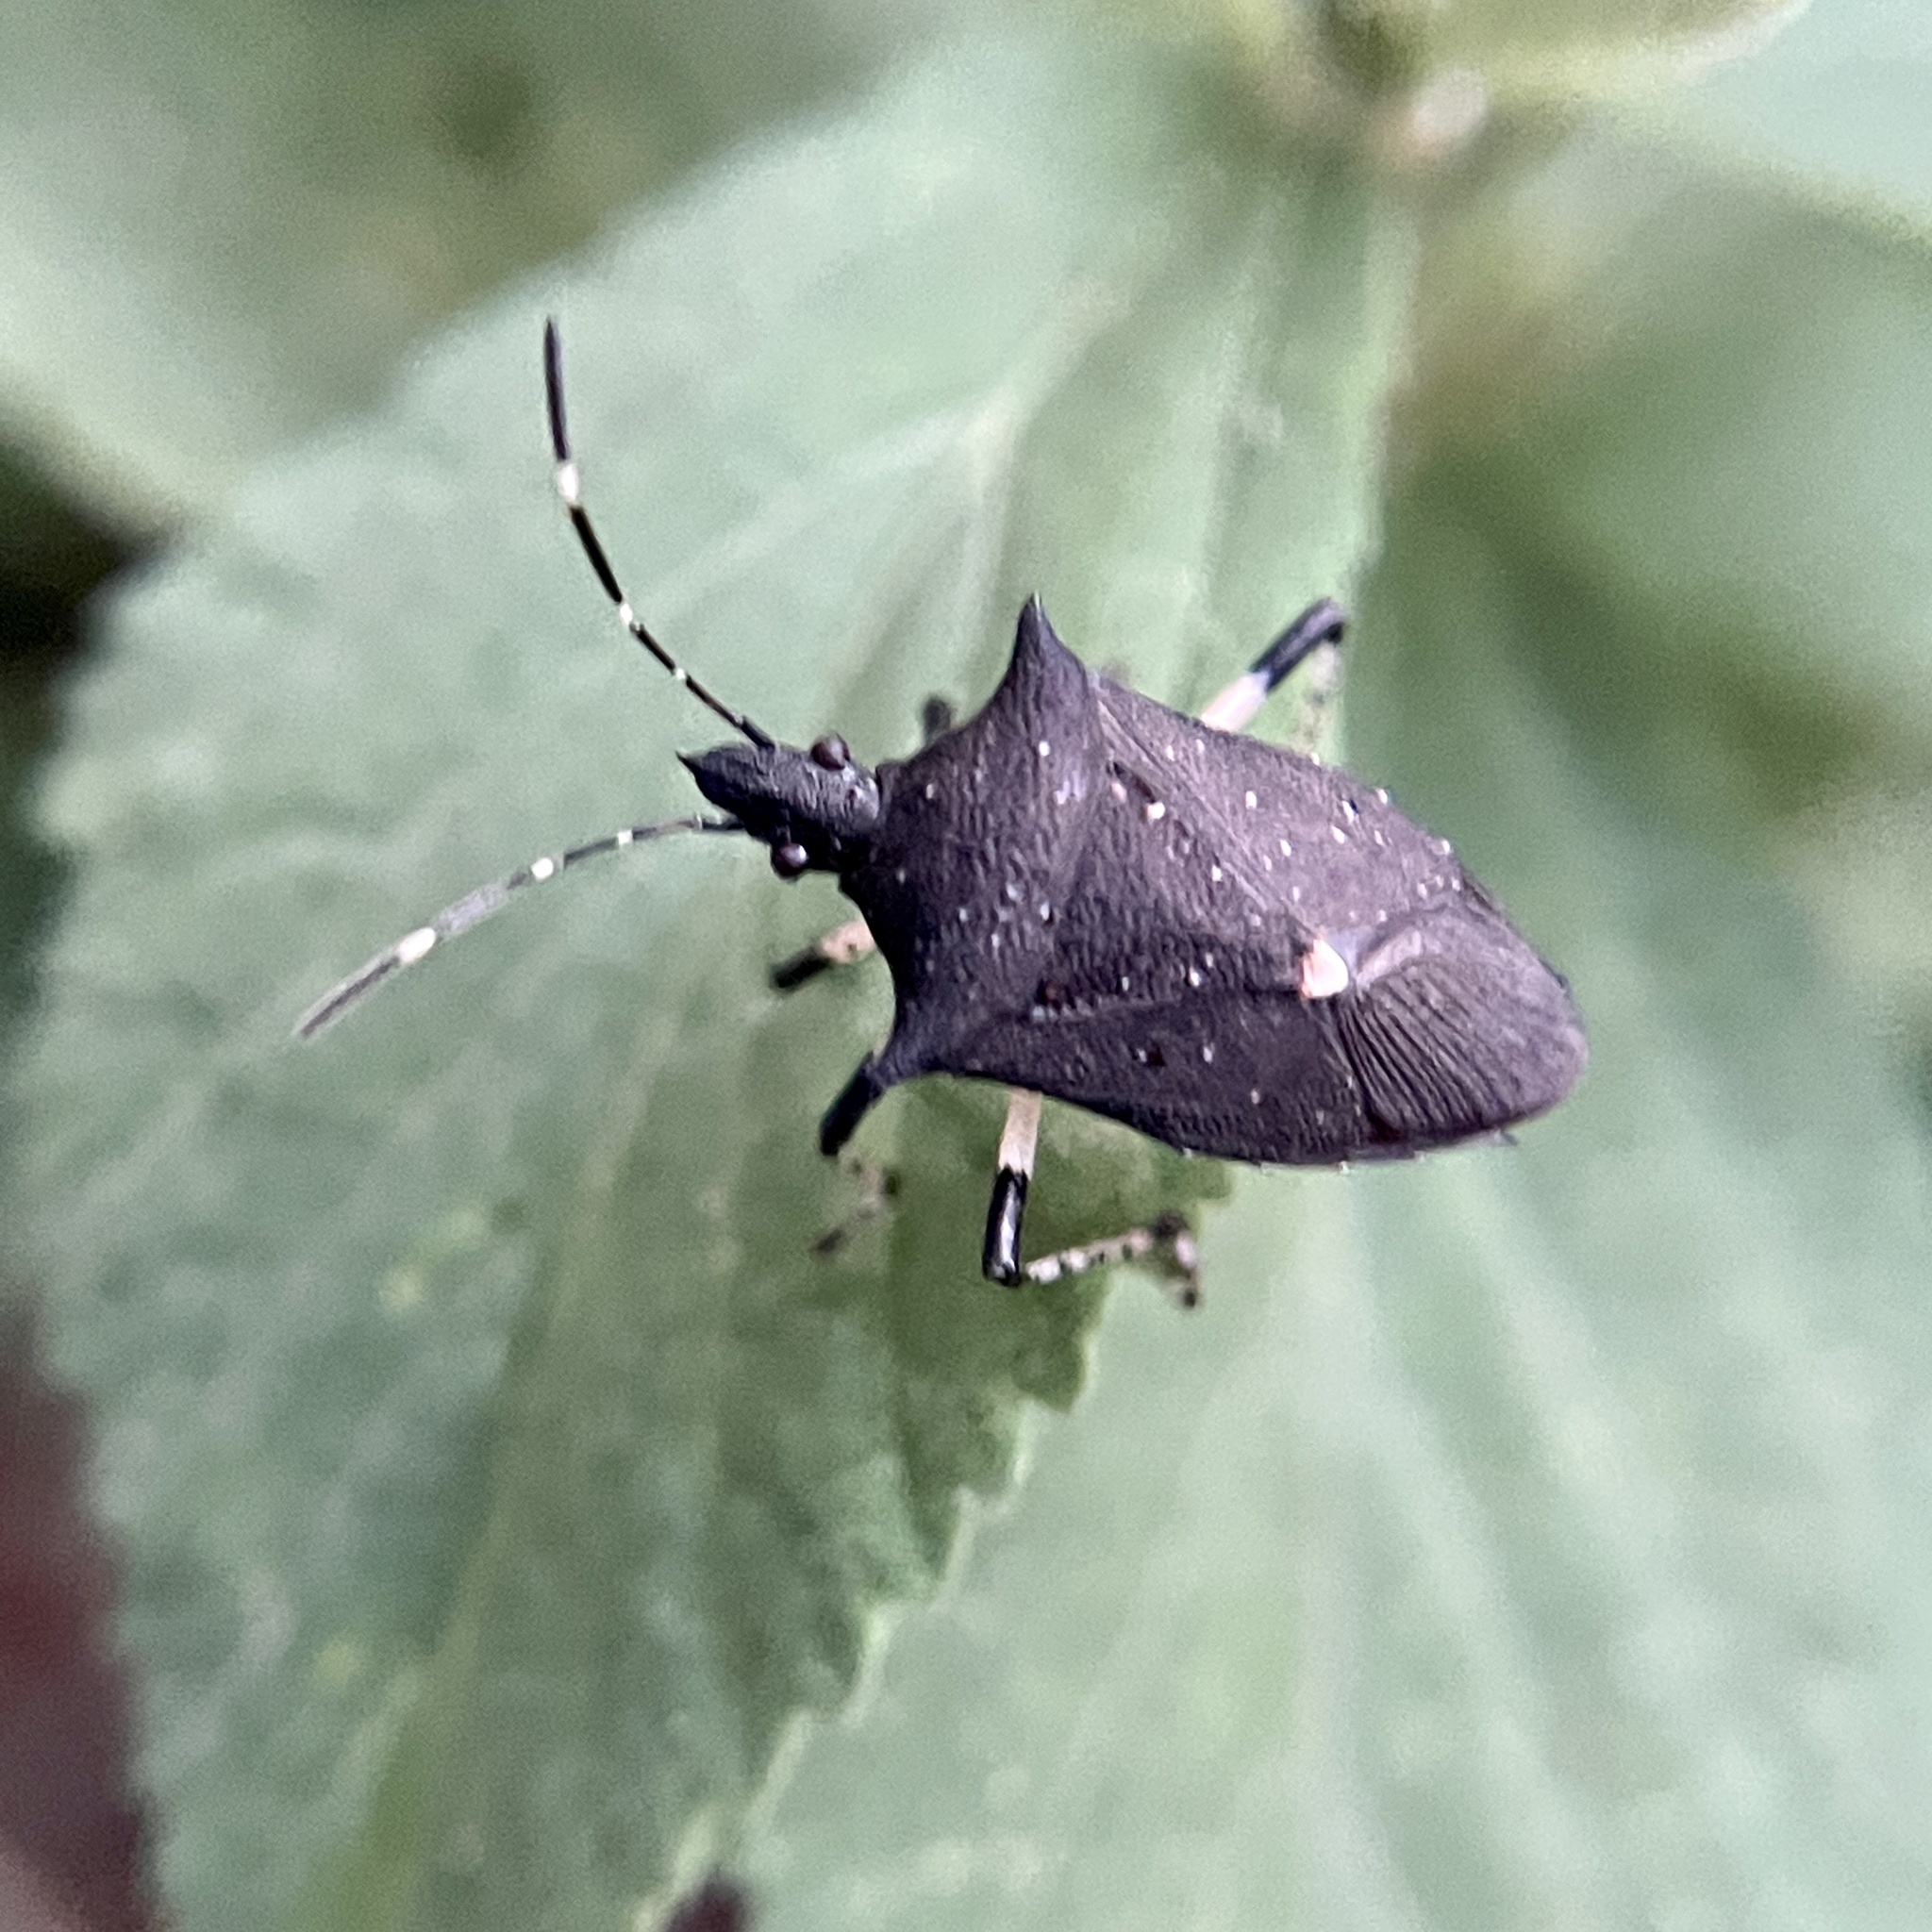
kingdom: Animalia
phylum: Arthropoda
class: Insecta
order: Hemiptera
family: Pentatomidae
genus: Proxys
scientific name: Proxys punctulatus
